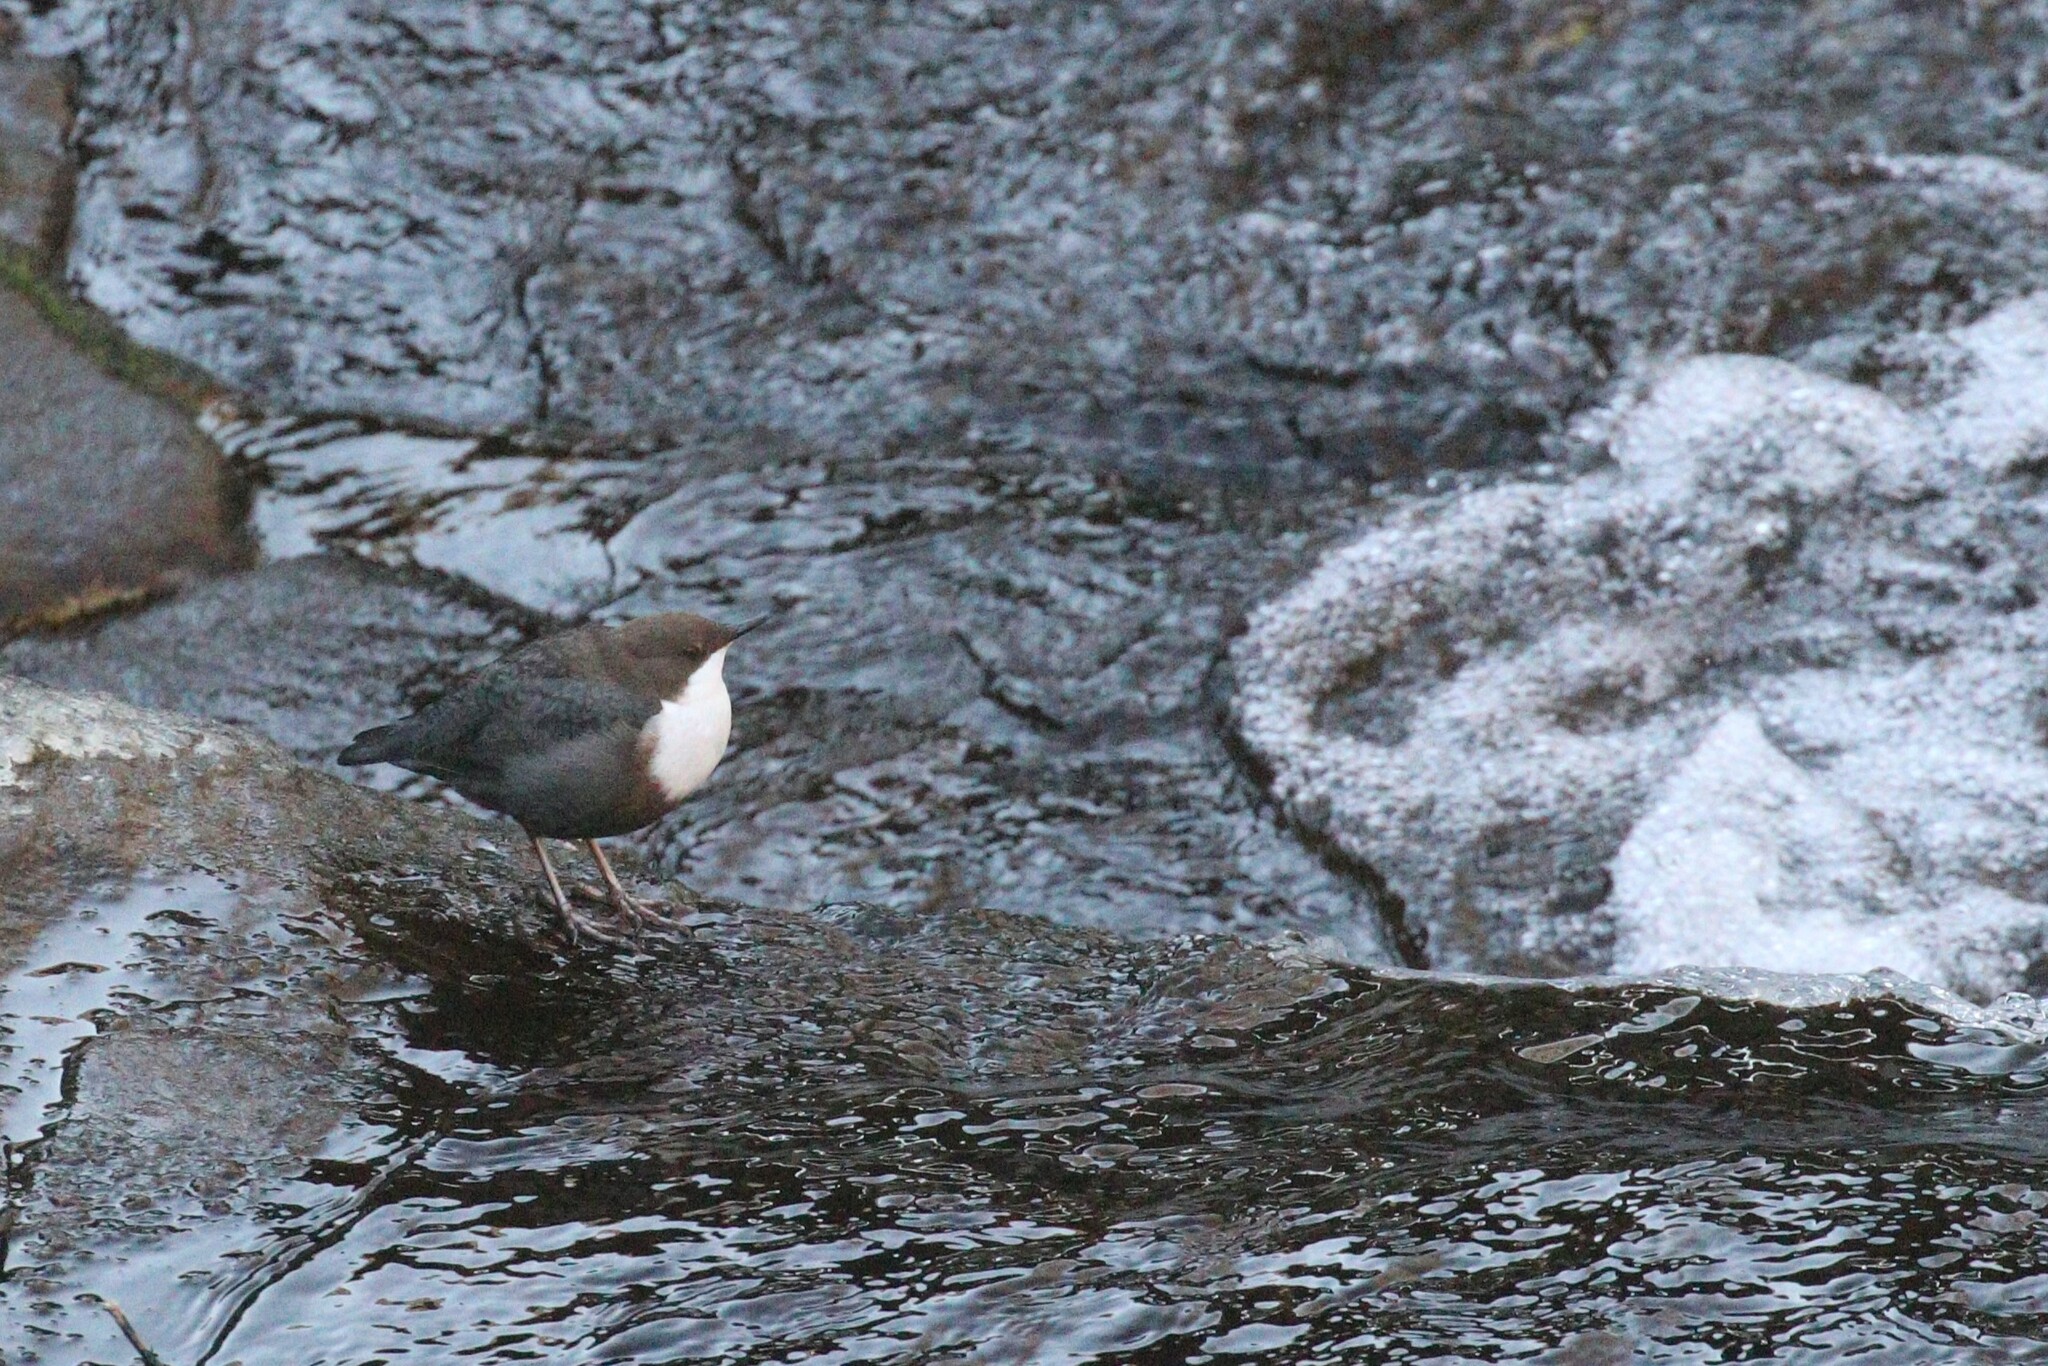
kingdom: Animalia
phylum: Chordata
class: Aves
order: Passeriformes
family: Cinclidae
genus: Cinclus
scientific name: Cinclus cinclus
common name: White-throated dipper
